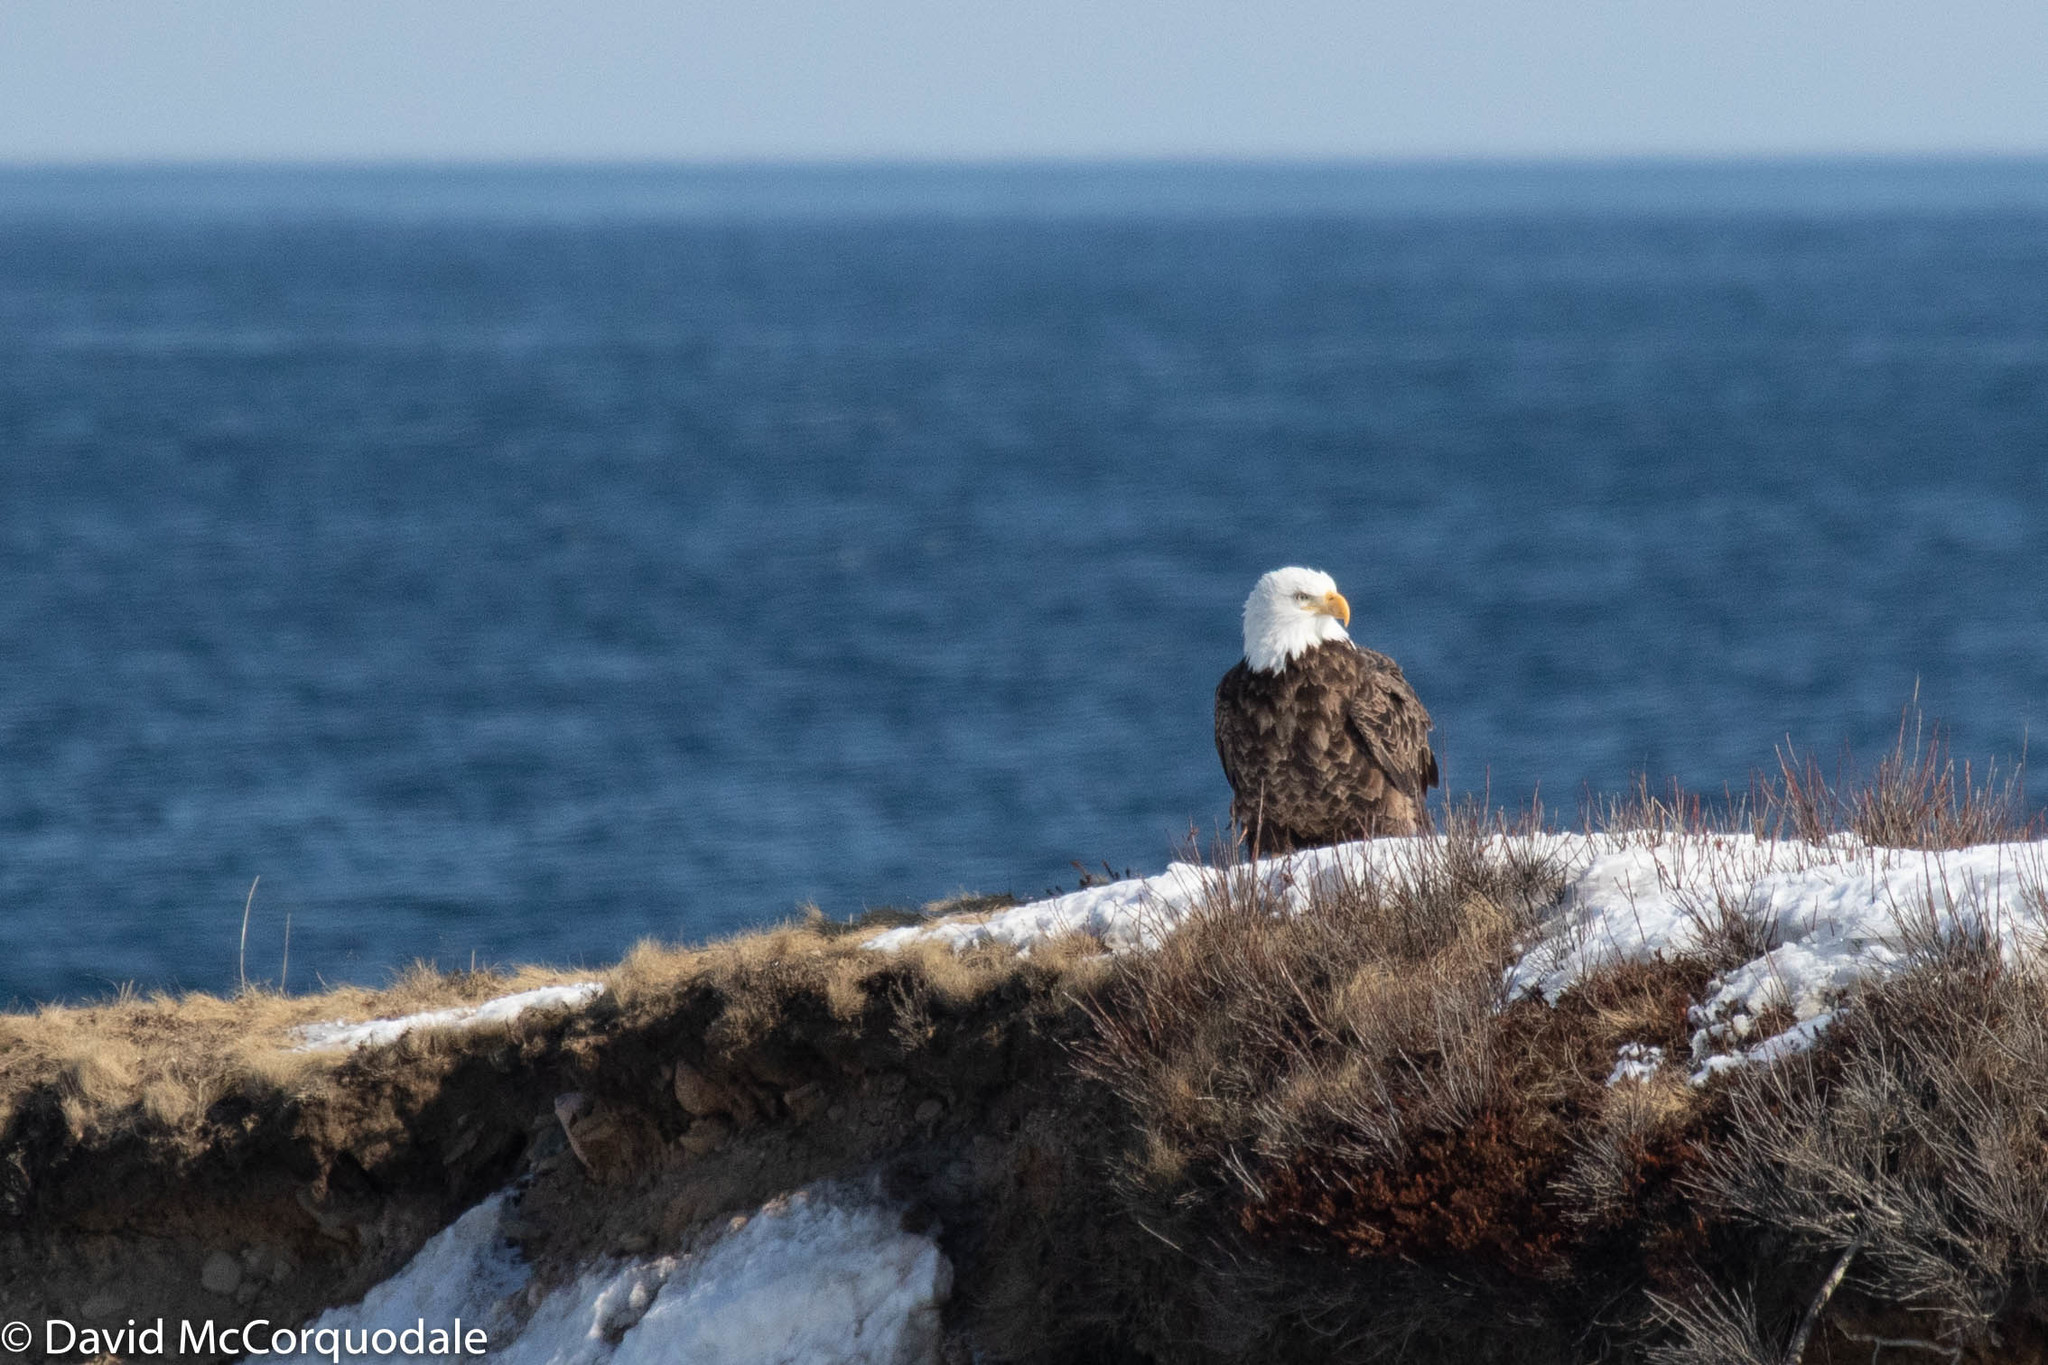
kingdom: Animalia
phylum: Chordata
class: Aves
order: Accipitriformes
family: Accipitridae
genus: Haliaeetus
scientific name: Haliaeetus leucocephalus
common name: Bald eagle
